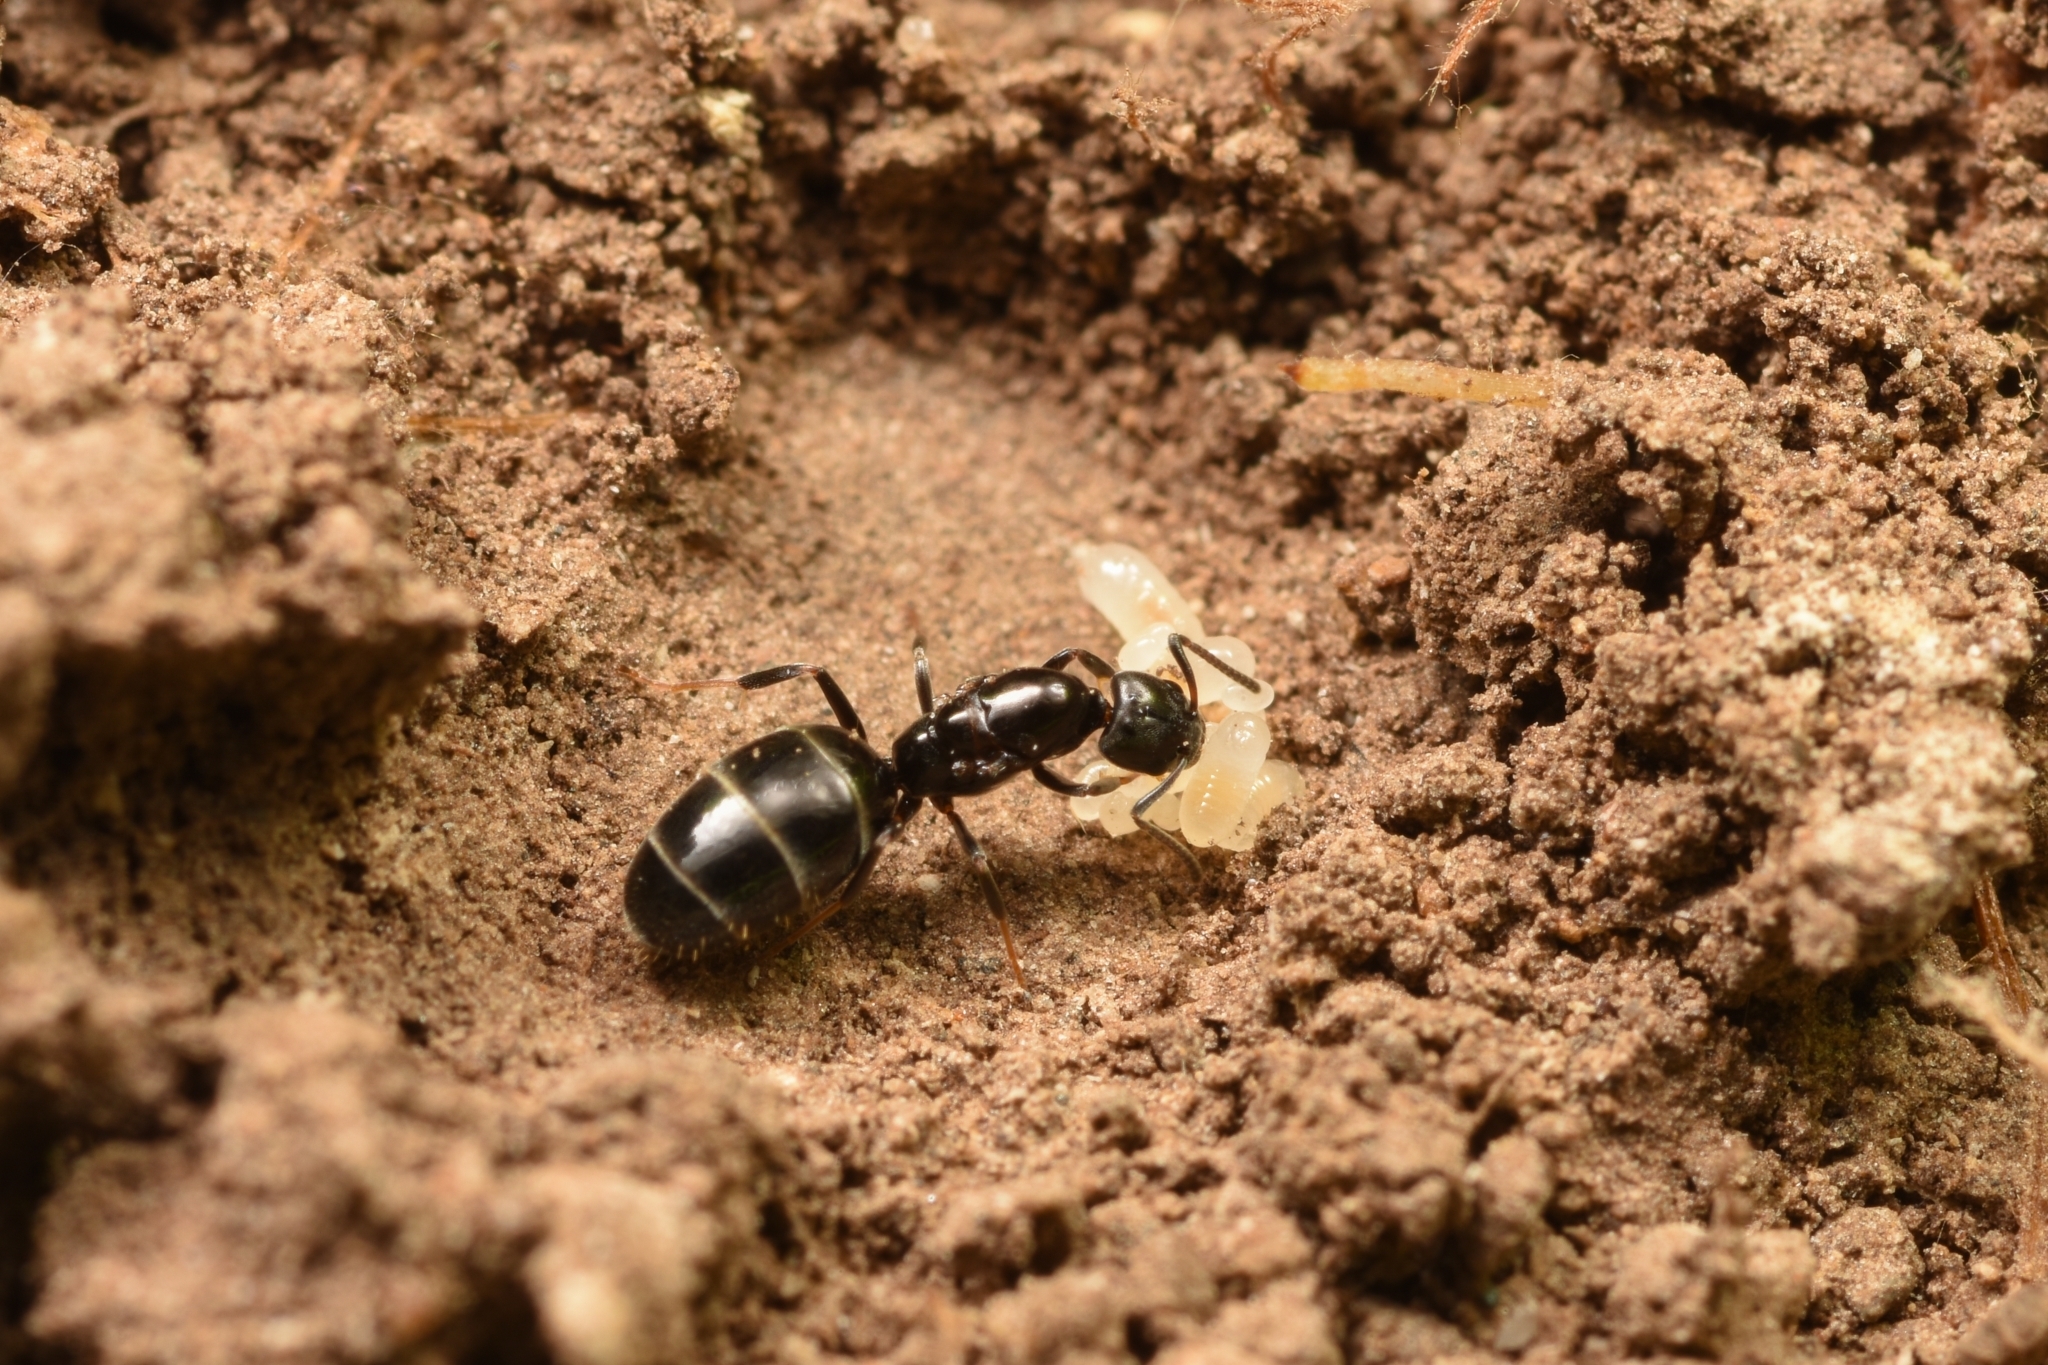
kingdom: Animalia
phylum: Arthropoda
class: Insecta
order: Hymenoptera
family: Formicidae
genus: Ochetellus
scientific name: Ochetellus glaber
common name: Ant
